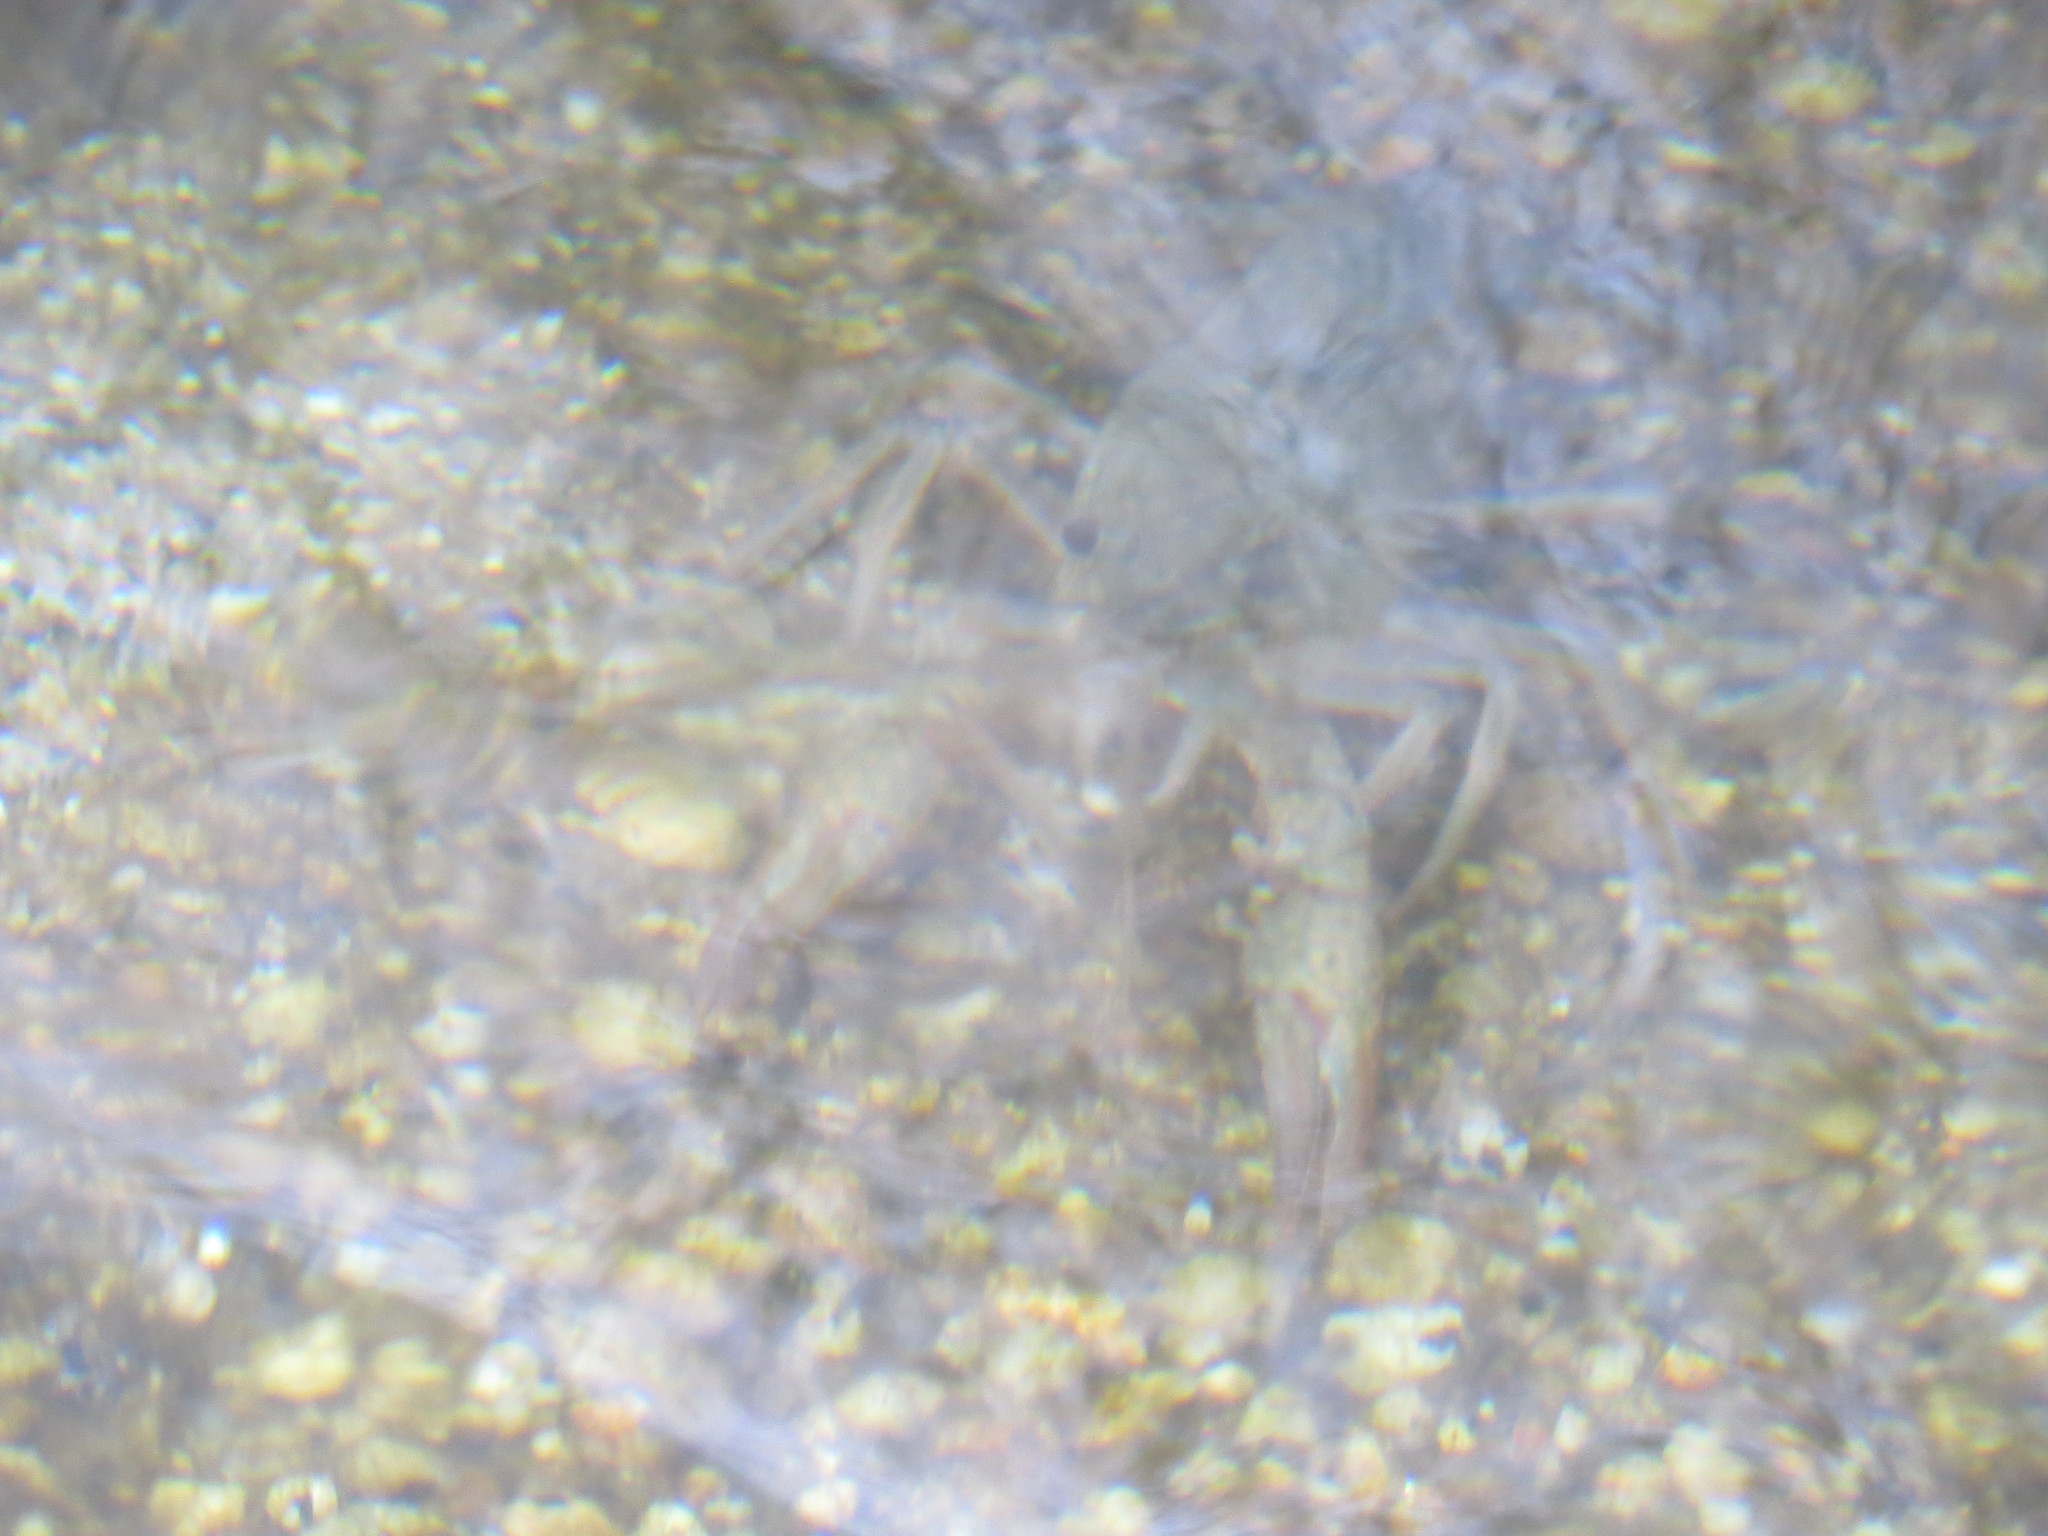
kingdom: Animalia
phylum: Arthropoda
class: Malacostraca
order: Decapoda
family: Cambaridae
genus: Procambarus
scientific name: Procambarus clarkii
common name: Red swamp crayfish
